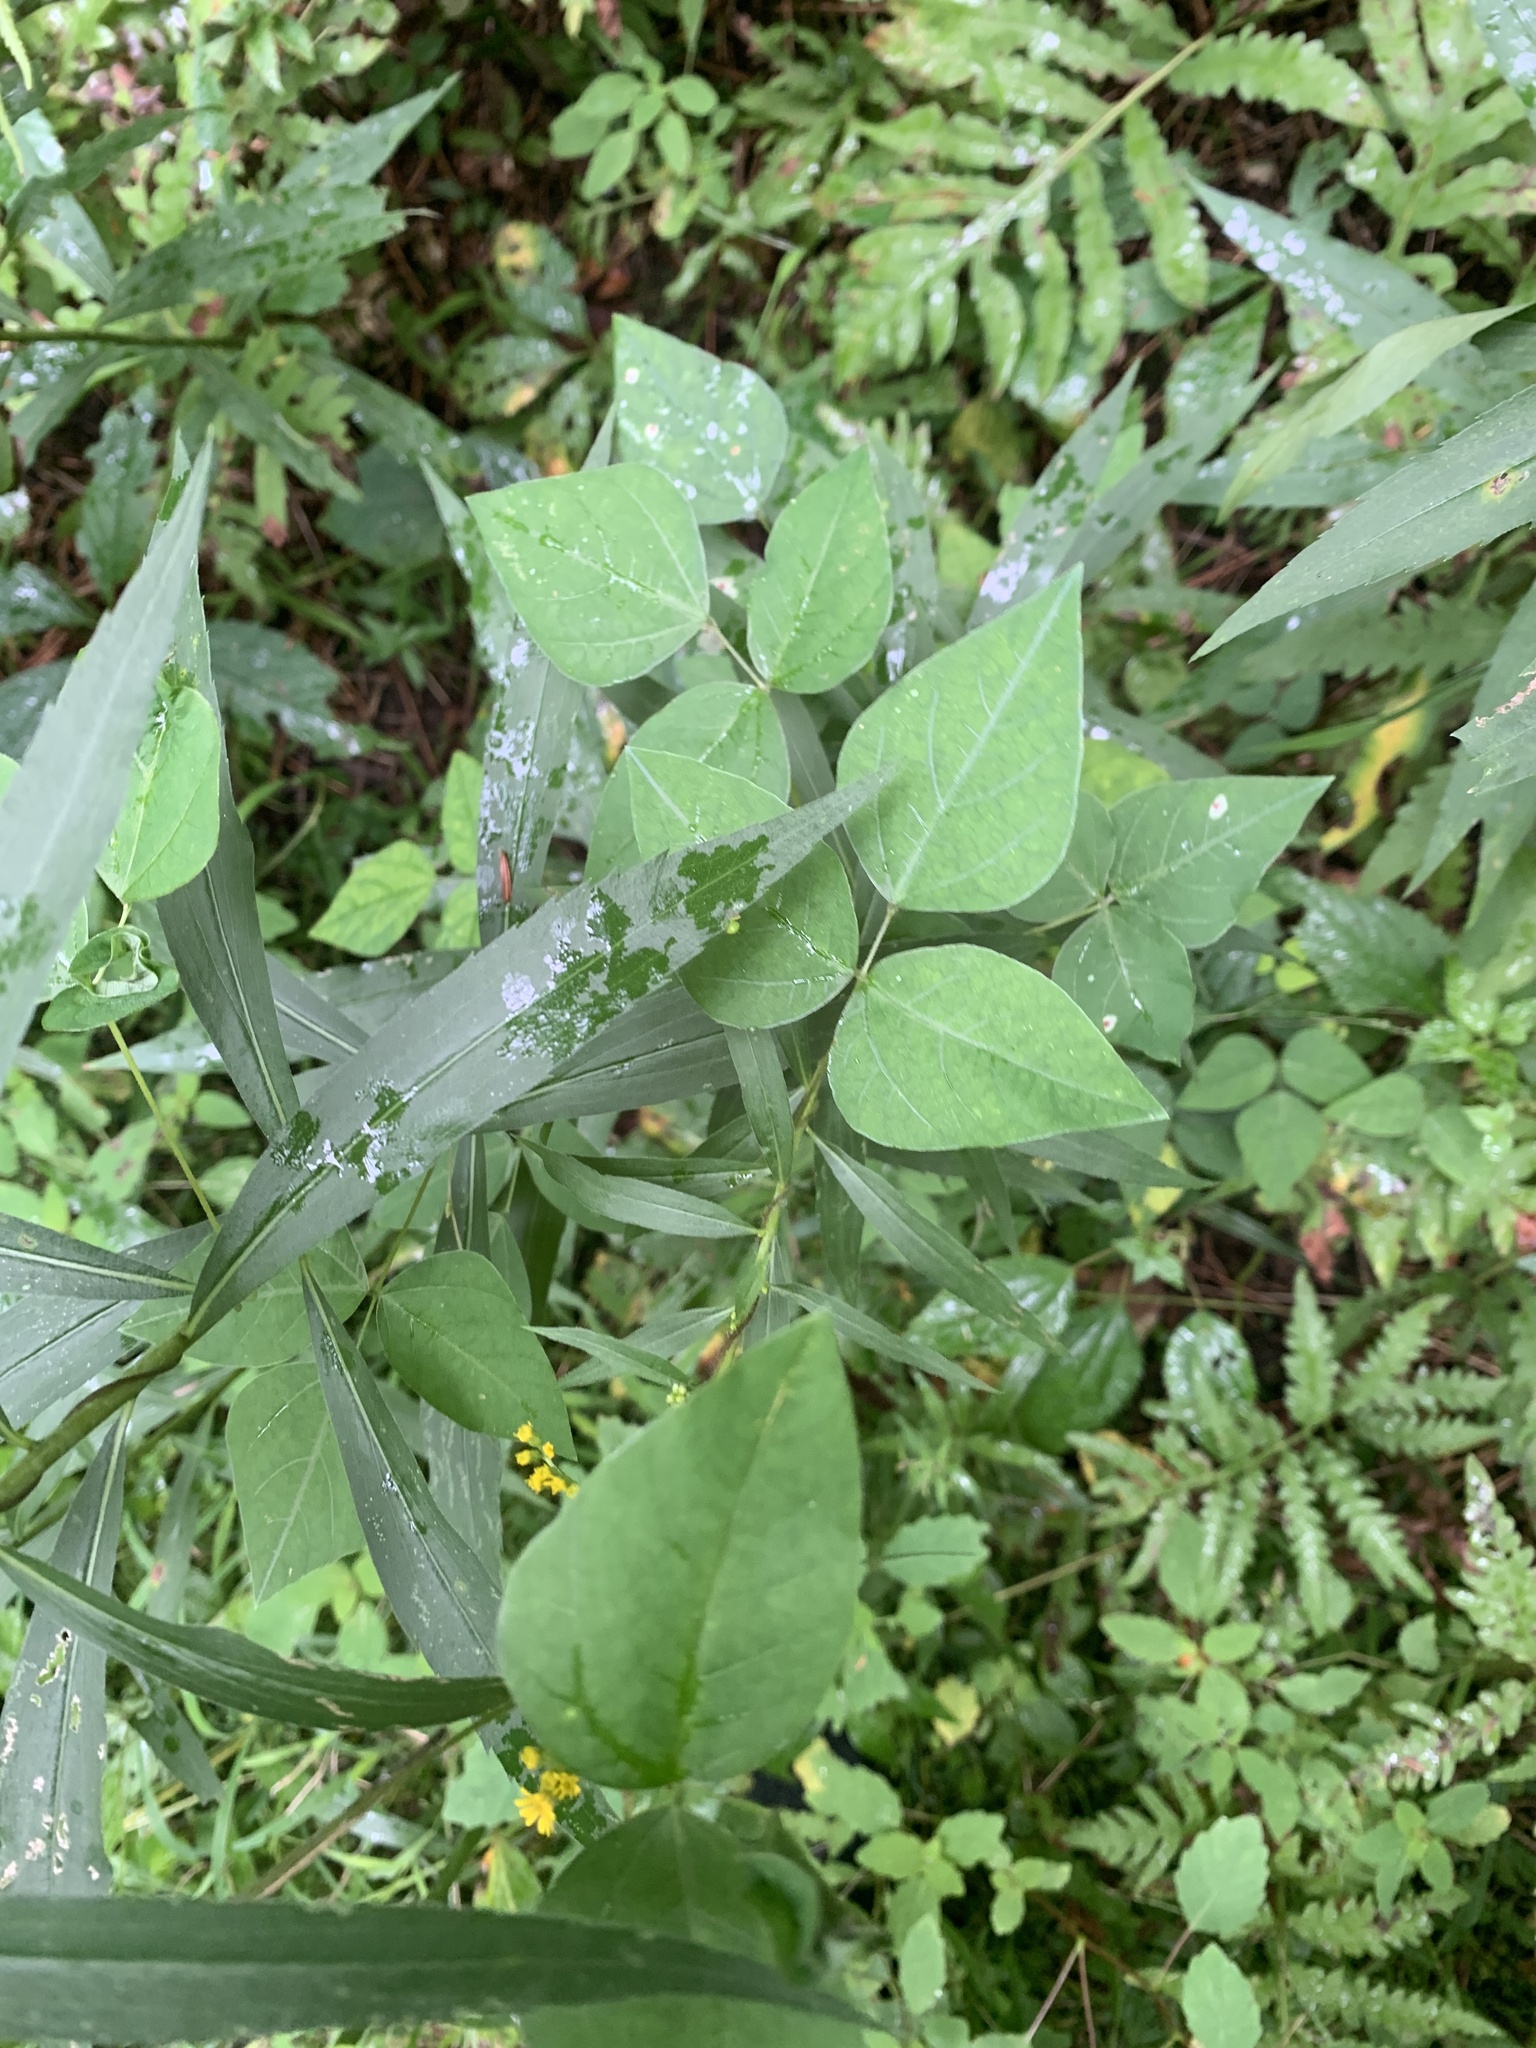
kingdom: Plantae
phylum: Tracheophyta
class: Magnoliopsida
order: Fabales
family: Fabaceae
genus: Amphicarpaea
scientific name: Amphicarpaea bracteata
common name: American hog peanut
